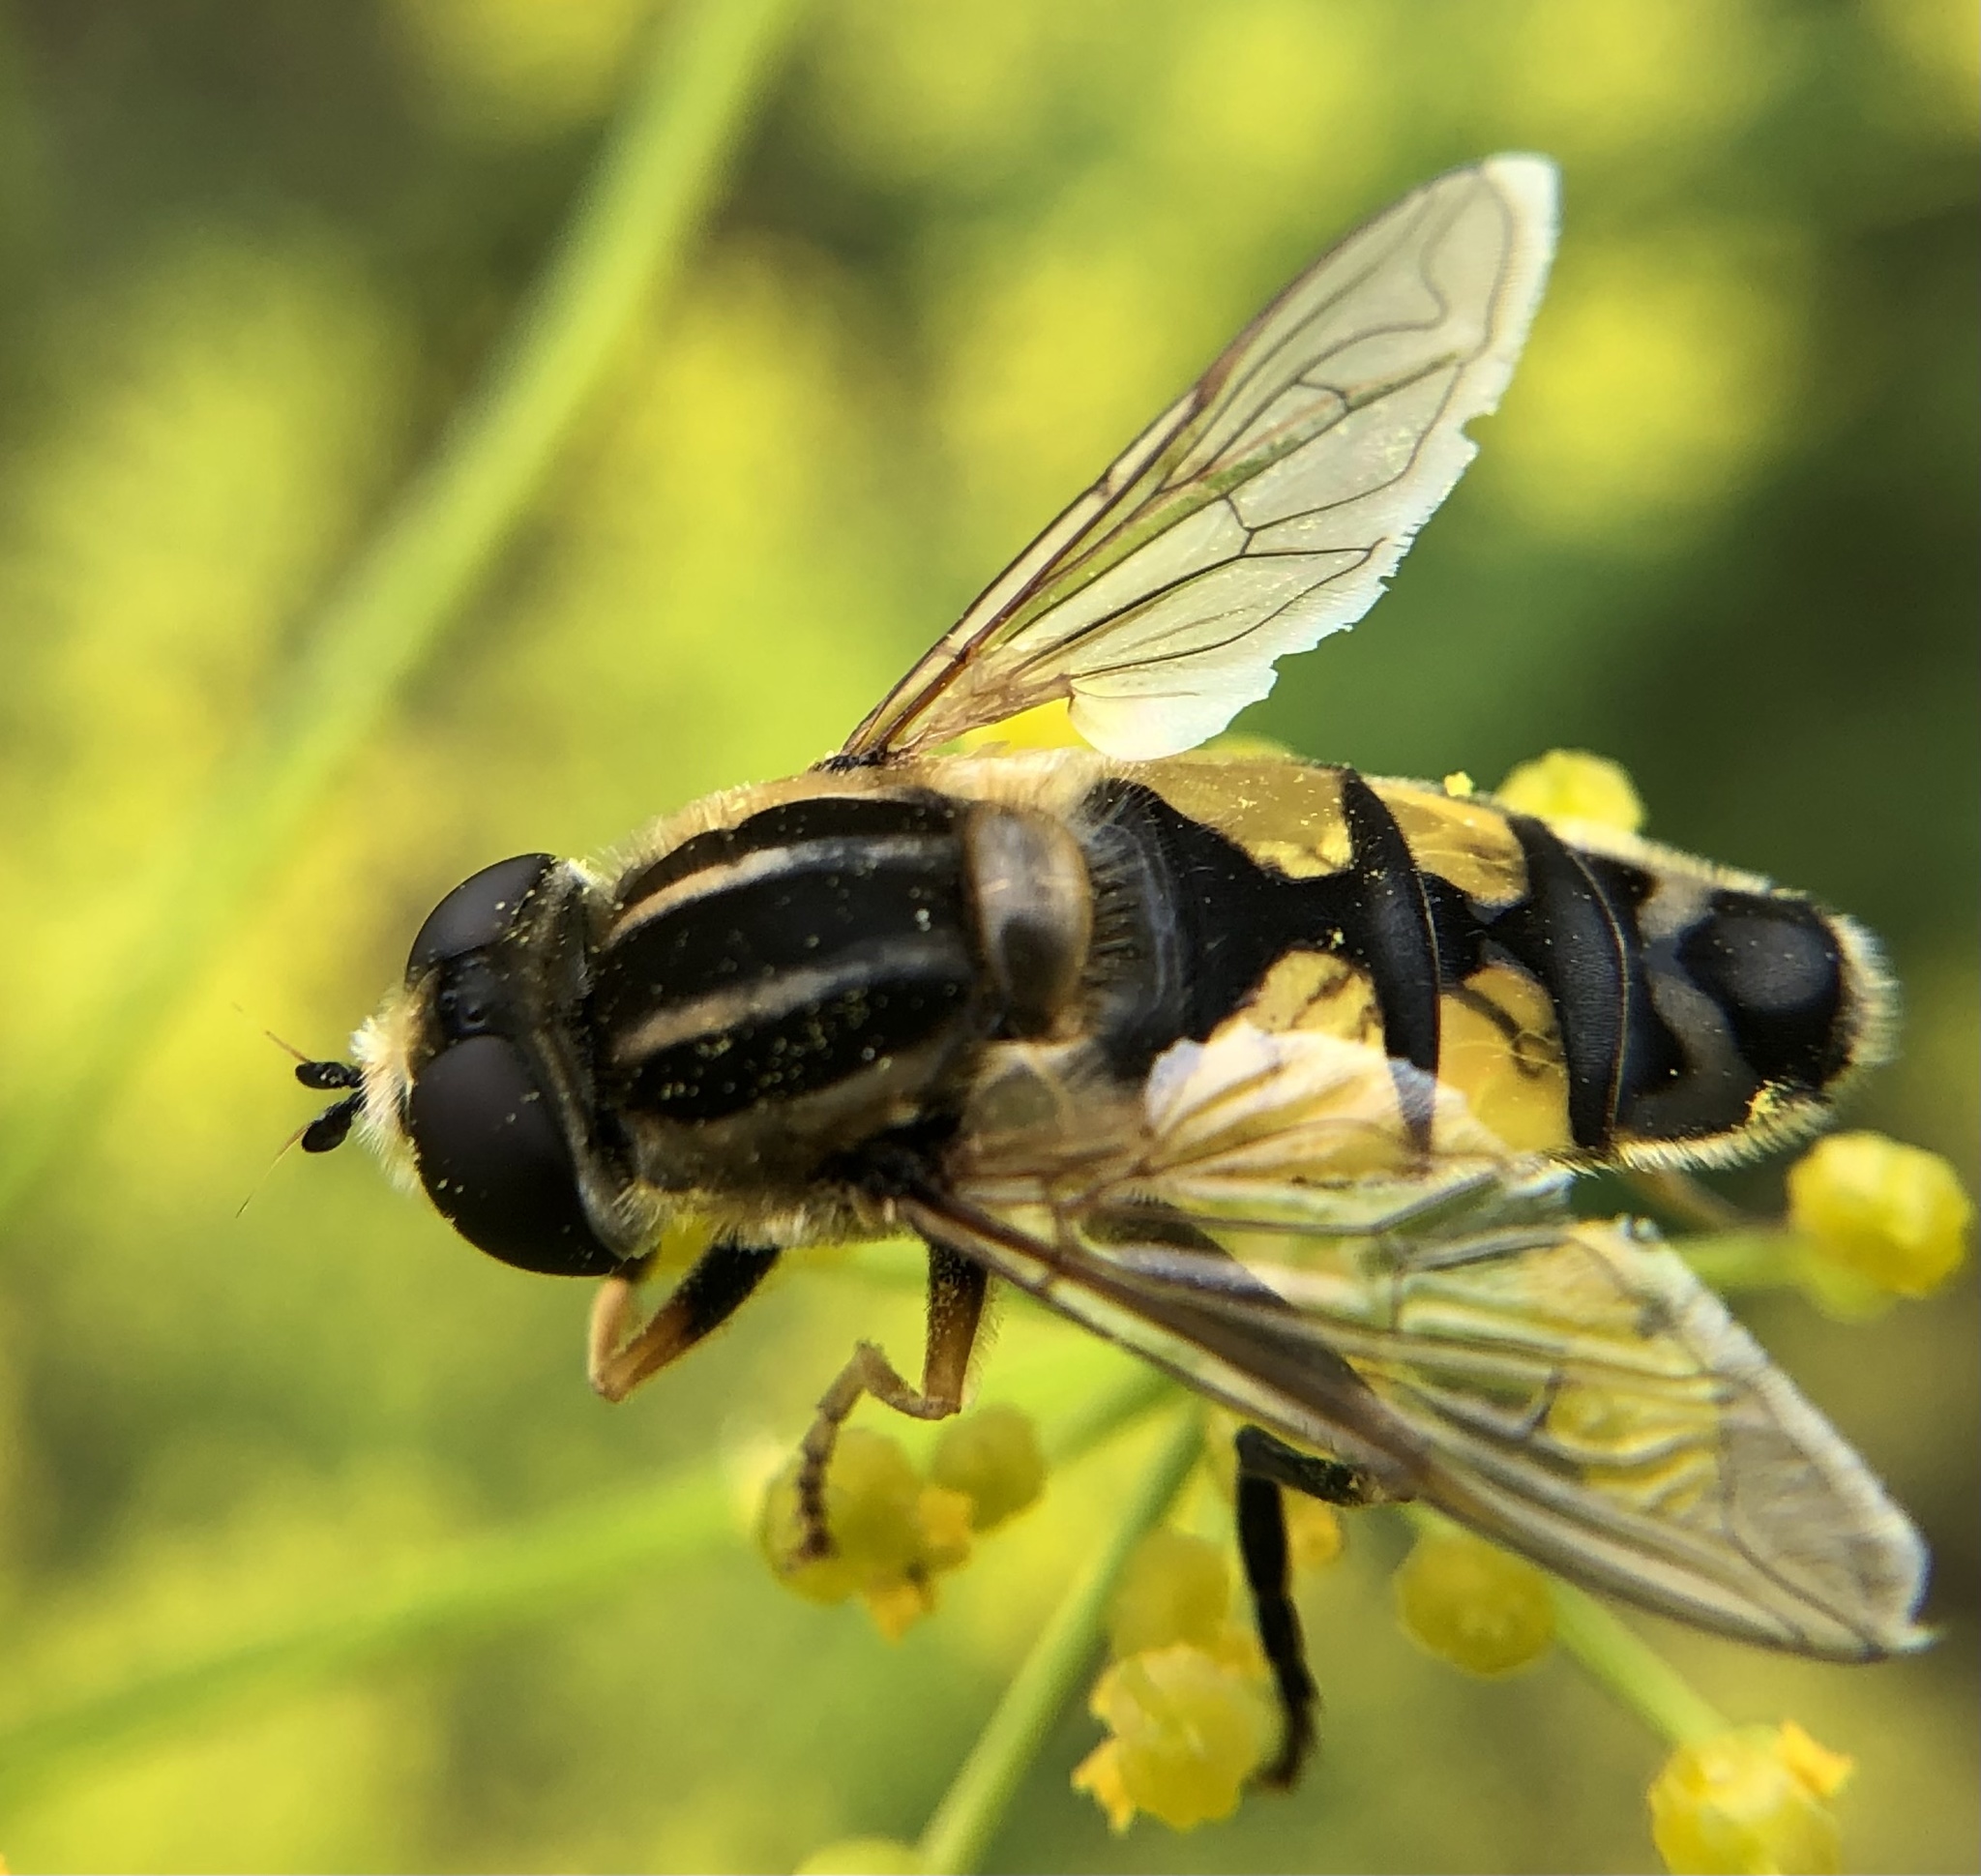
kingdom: Animalia
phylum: Arthropoda
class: Insecta
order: Diptera
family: Syrphidae
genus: Helophilus
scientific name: Helophilus trivittatus
